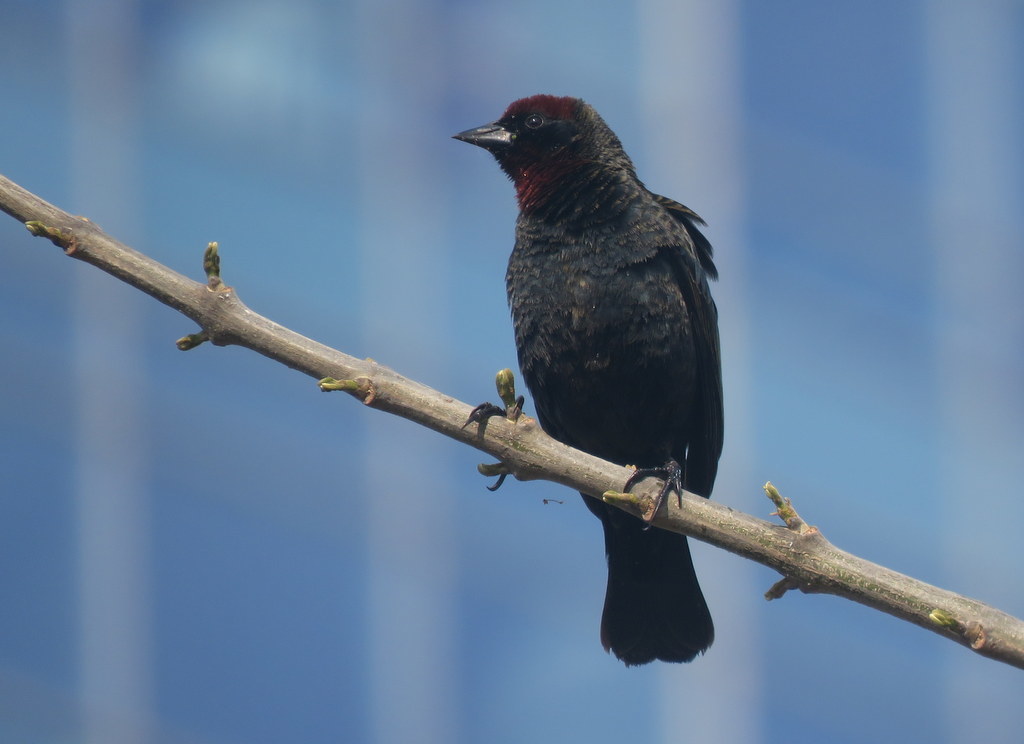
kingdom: Animalia
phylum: Chordata
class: Aves
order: Passeriformes
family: Icteridae
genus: Chrysomus
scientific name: Chrysomus ruficapillus
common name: Chestnut-capped blackbird
